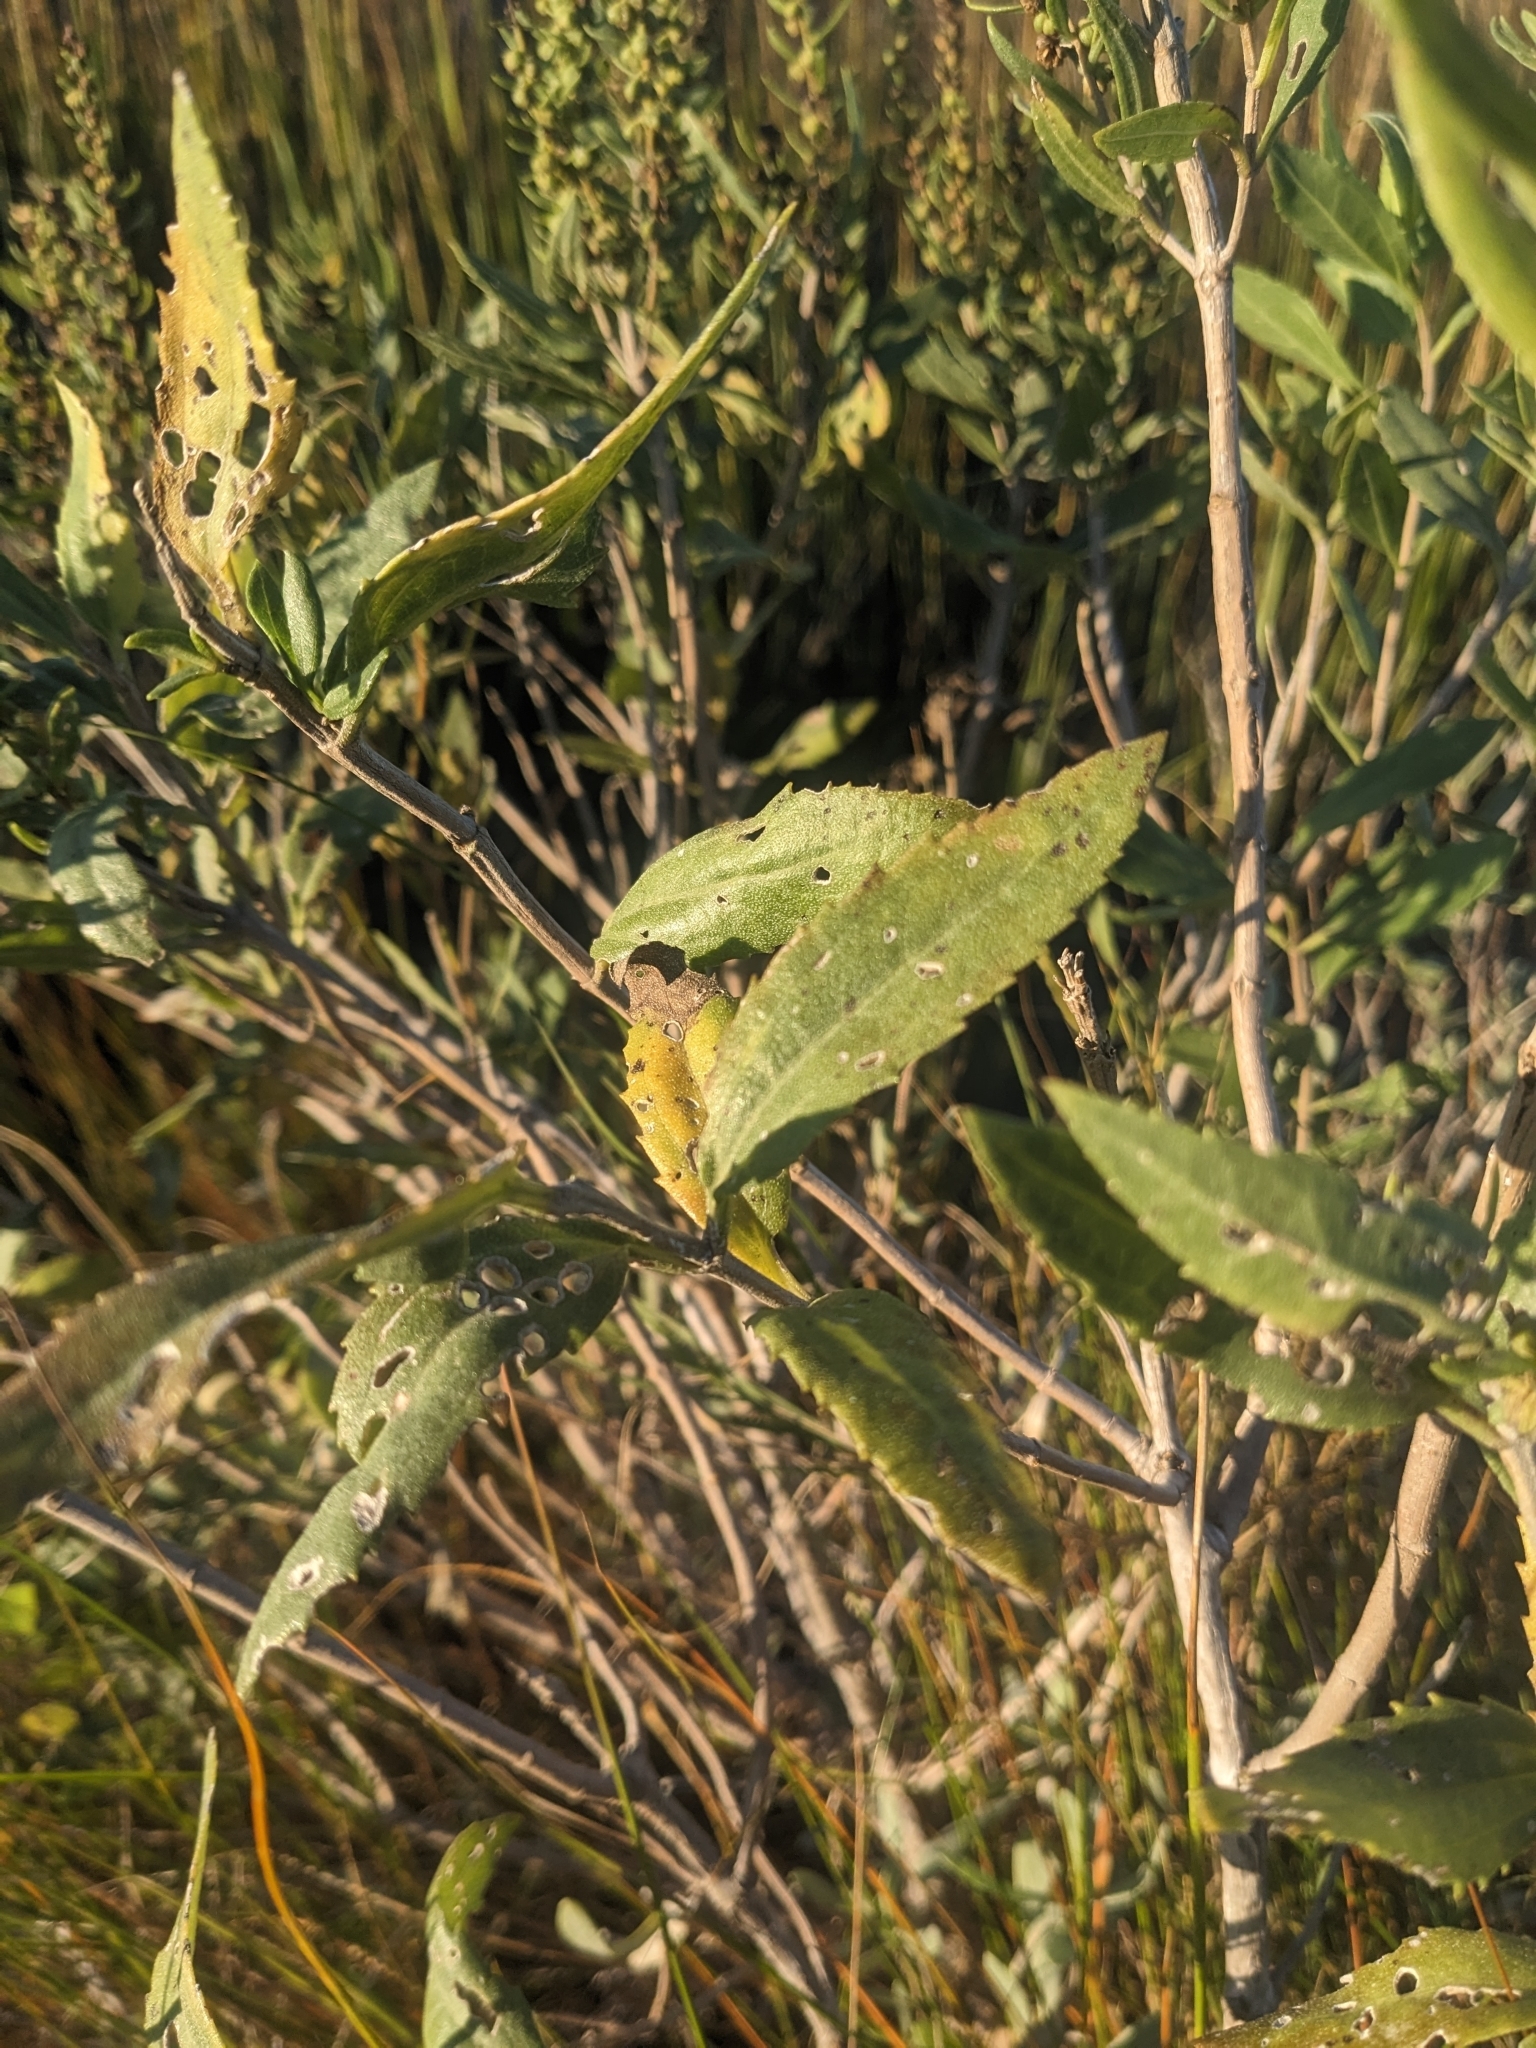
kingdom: Plantae
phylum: Tracheophyta
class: Magnoliopsida
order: Asterales
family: Asteraceae
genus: Iva
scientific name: Iva frutescens
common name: Big-leaved marsh-elder
